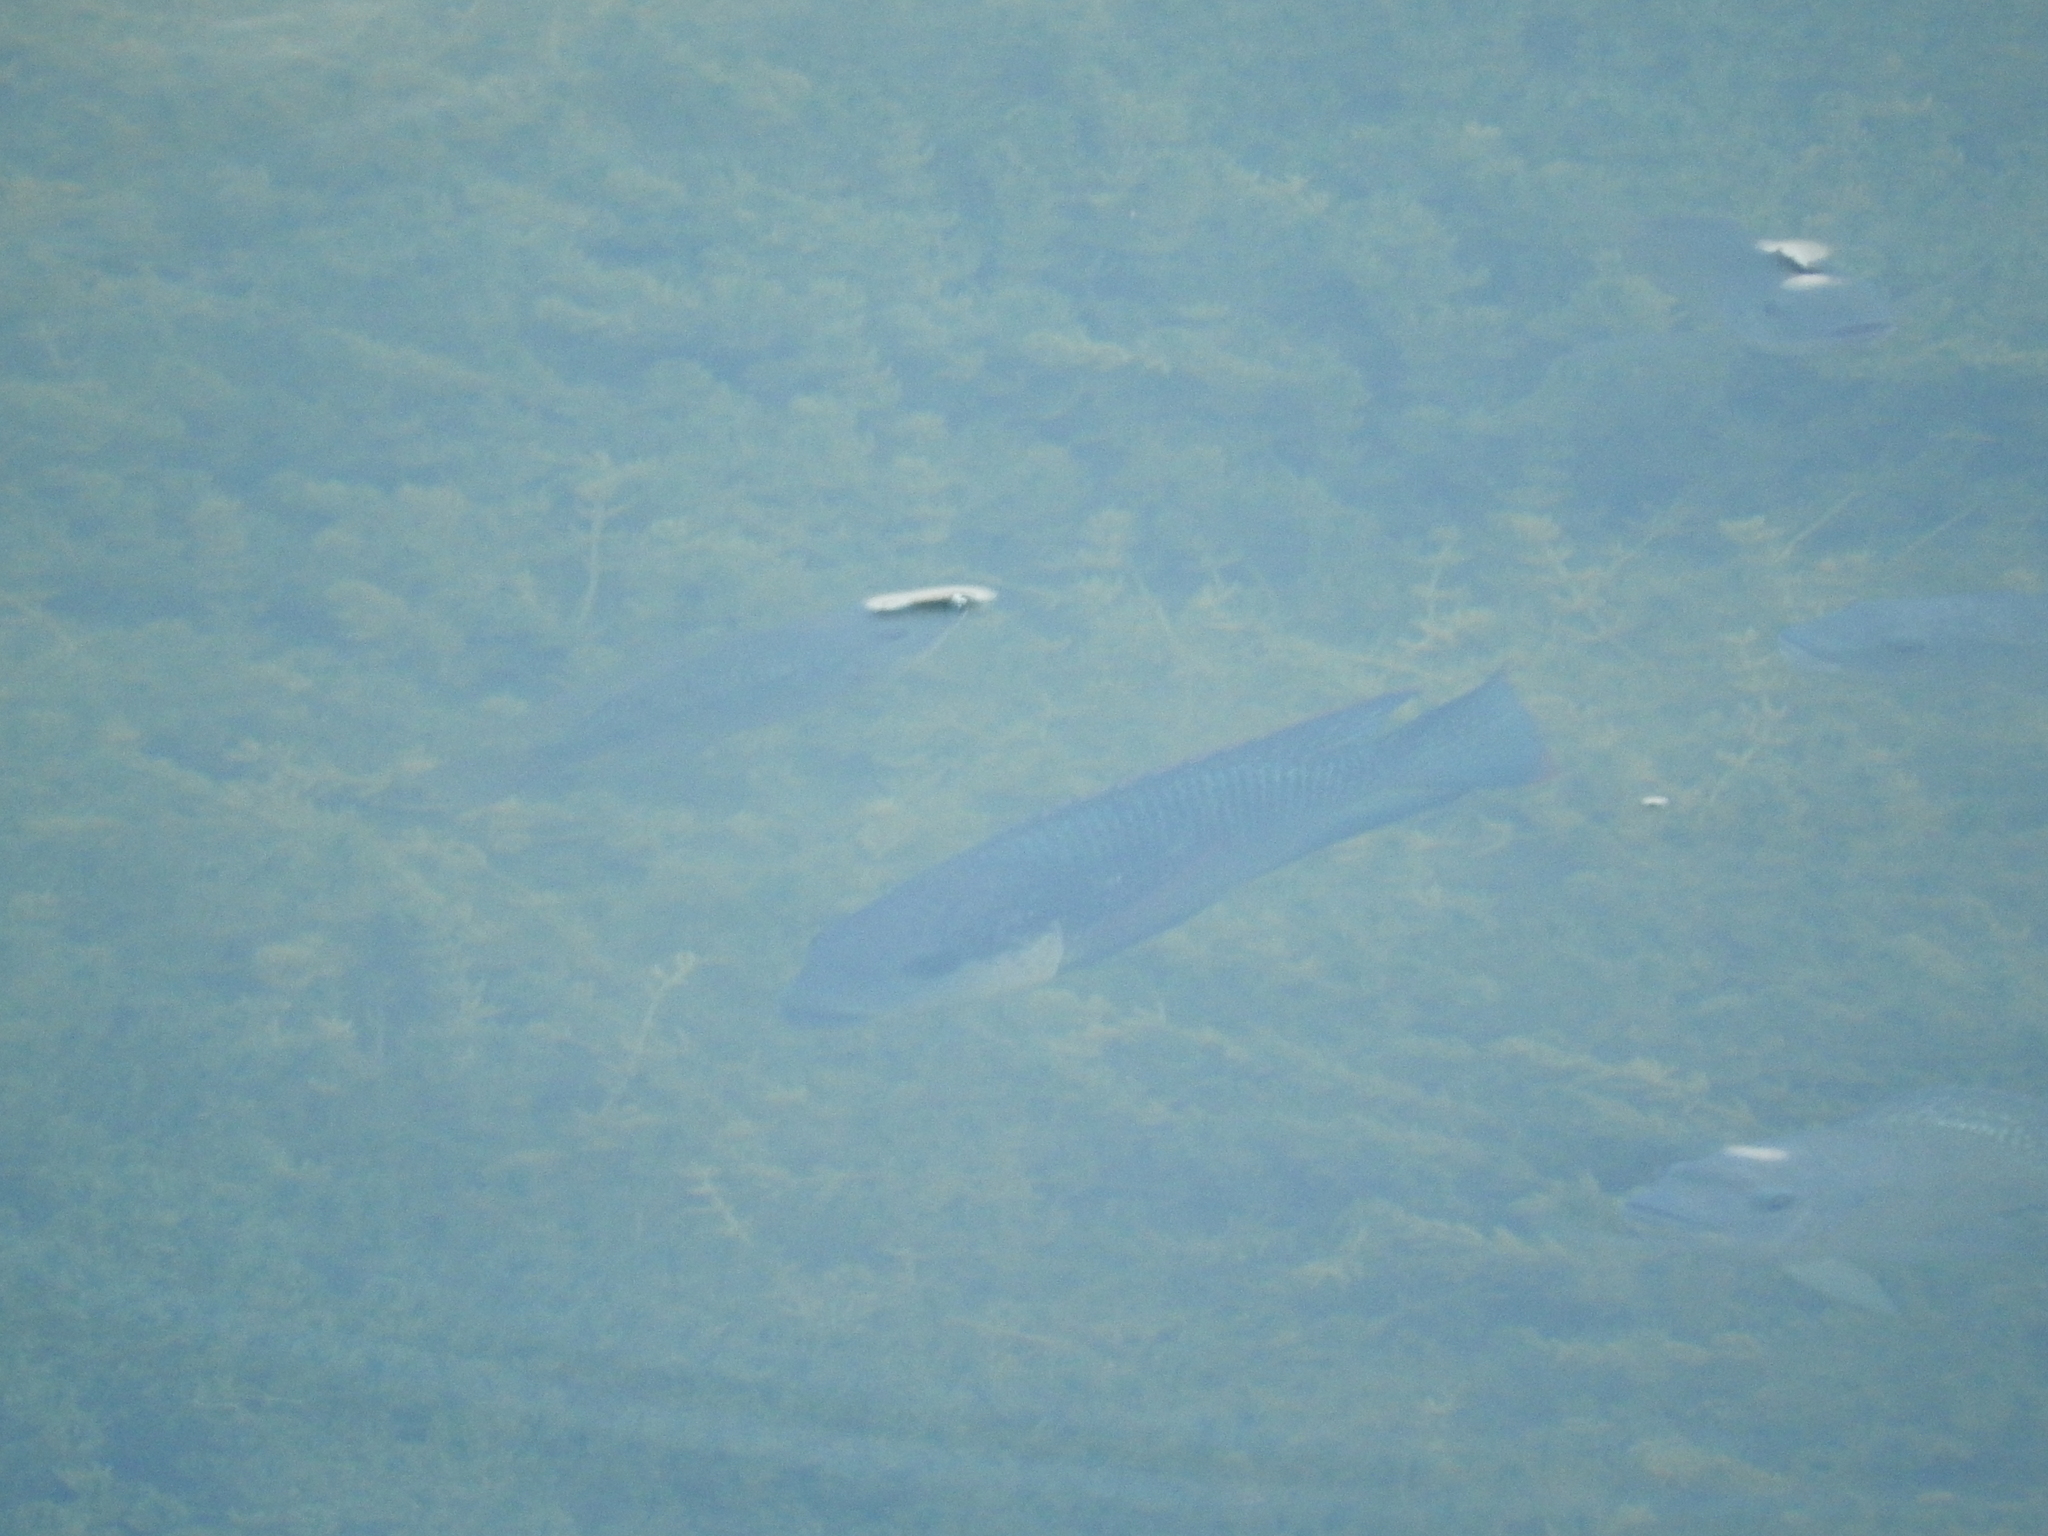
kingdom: Animalia
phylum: Chordata
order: Perciformes
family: Cichlidae
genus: Oreochromis
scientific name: Oreochromis mossambicus
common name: Mozambique tilapia
